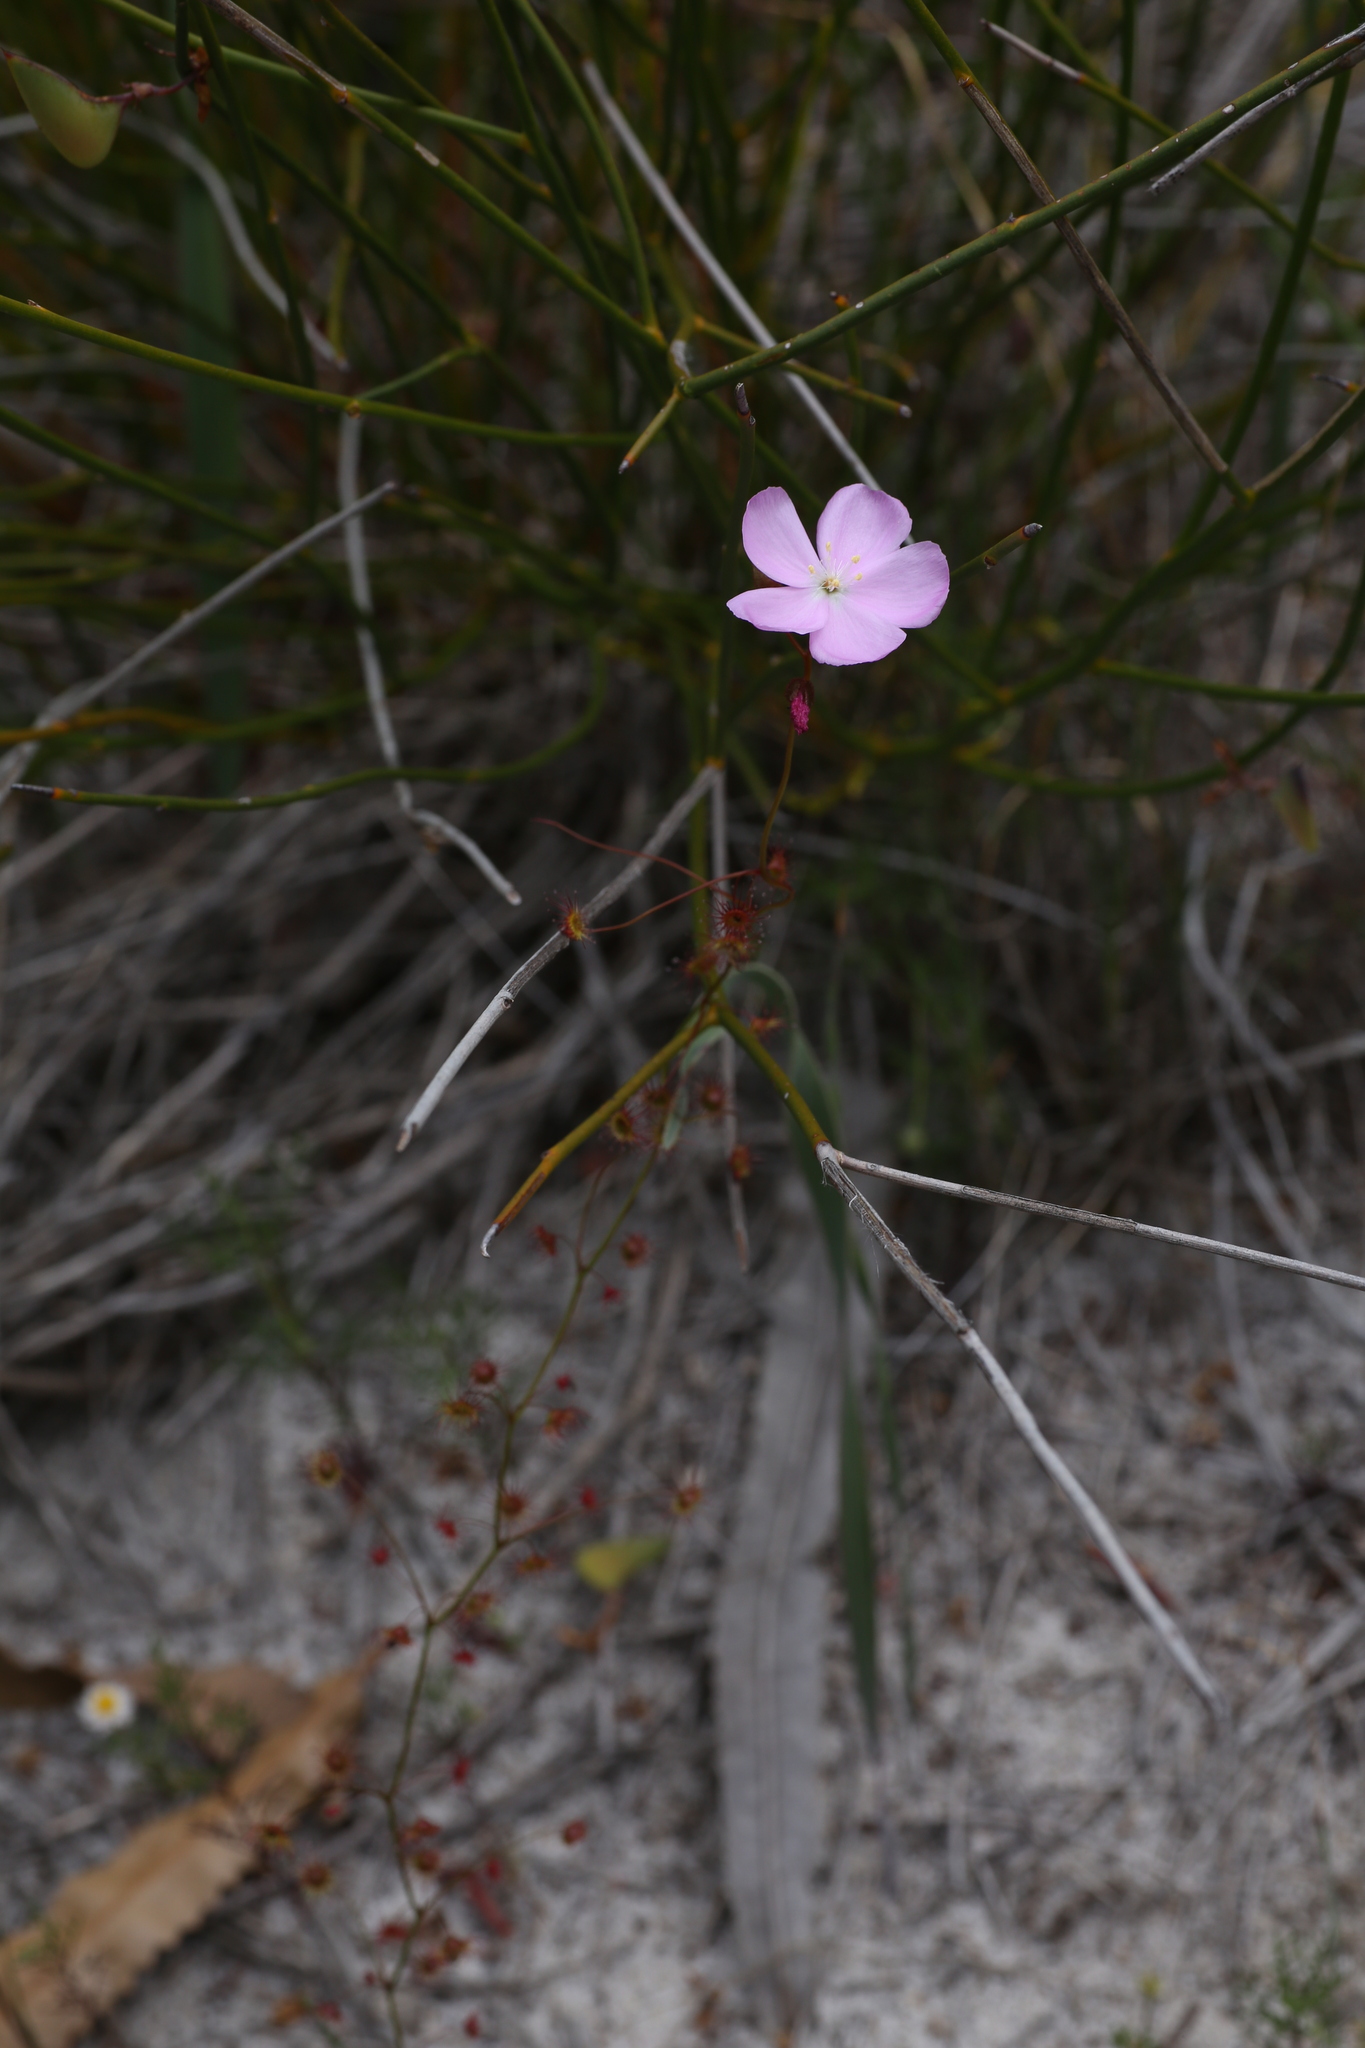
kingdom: Plantae
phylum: Tracheophyta
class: Magnoliopsida
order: Caryophyllales
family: Droseraceae
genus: Drosera
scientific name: Drosera
